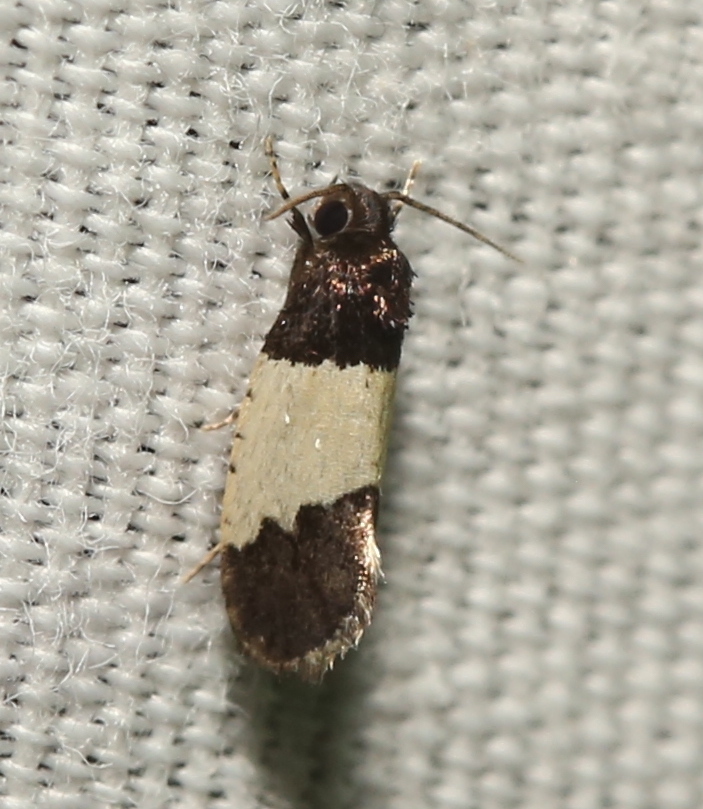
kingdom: Animalia
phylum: Arthropoda
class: Insecta
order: Lepidoptera
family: Psychidae
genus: Kearfottia
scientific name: Kearfottia albifasciella
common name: White-patched kearfottia
